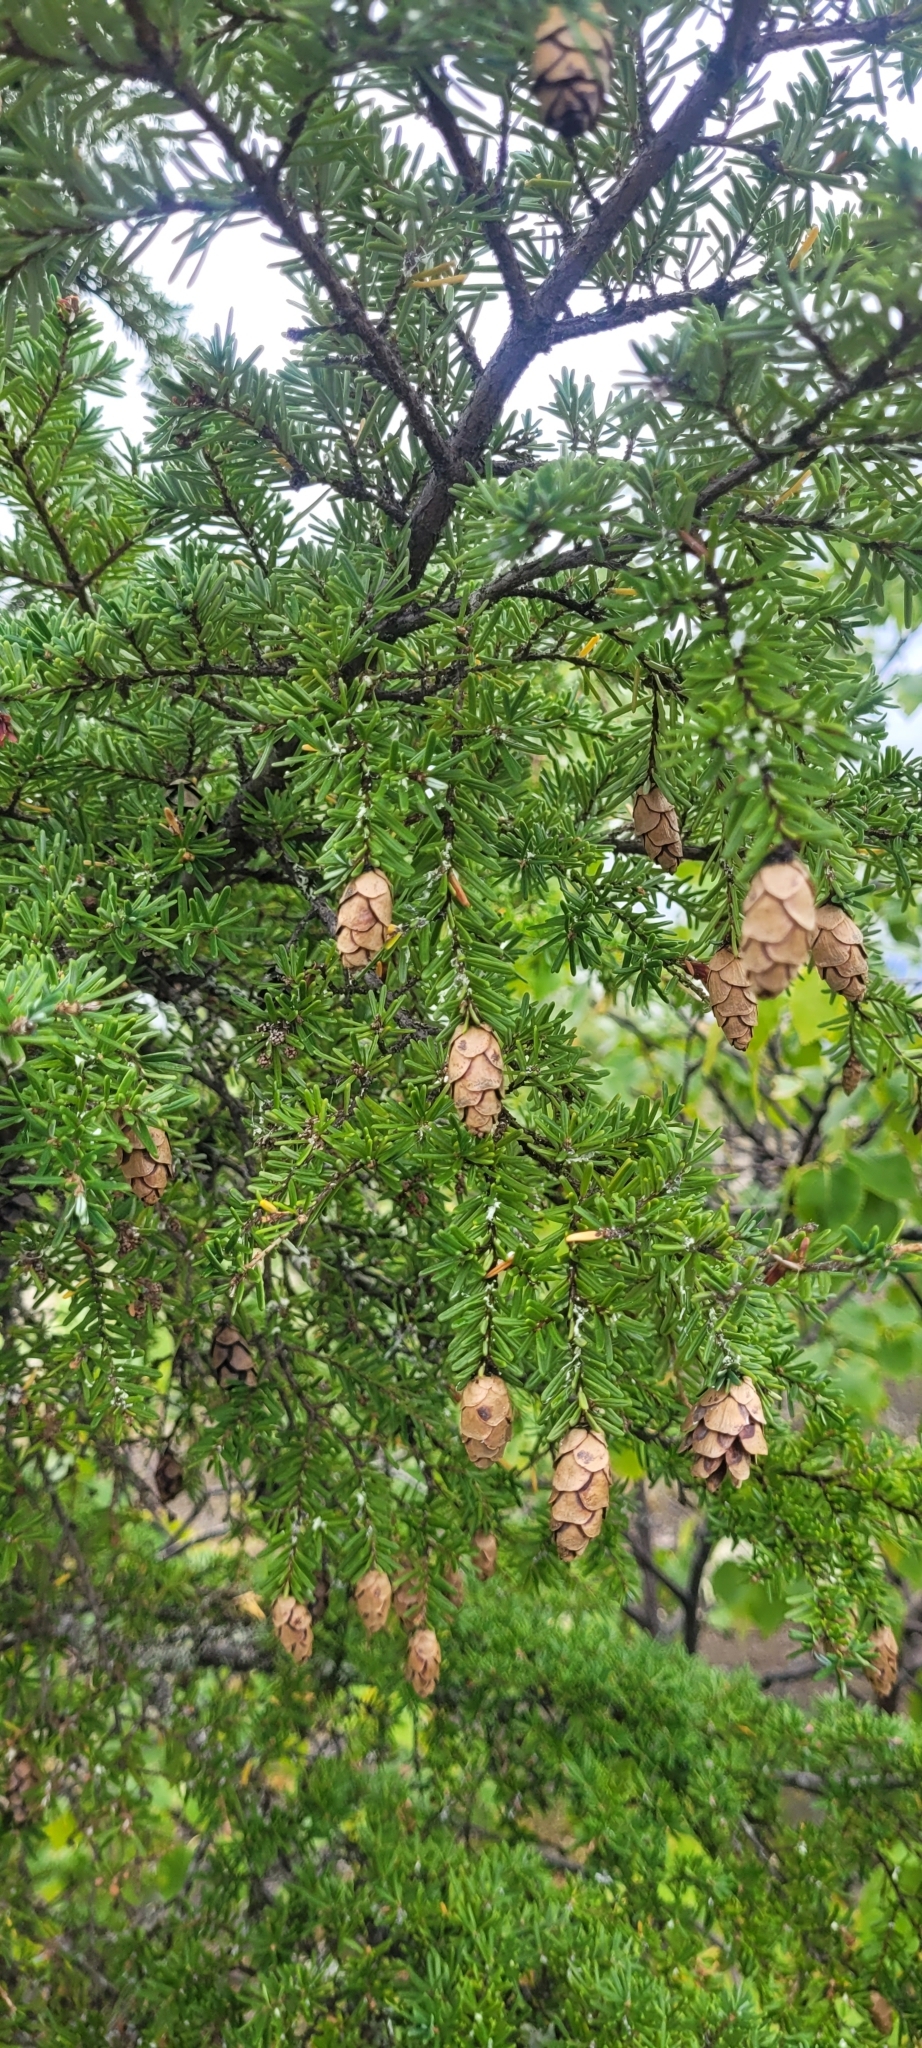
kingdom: Plantae
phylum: Tracheophyta
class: Pinopsida
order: Pinales
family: Pinaceae
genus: Tsuga
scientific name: Tsuga heterophylla
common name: Western hemlock
